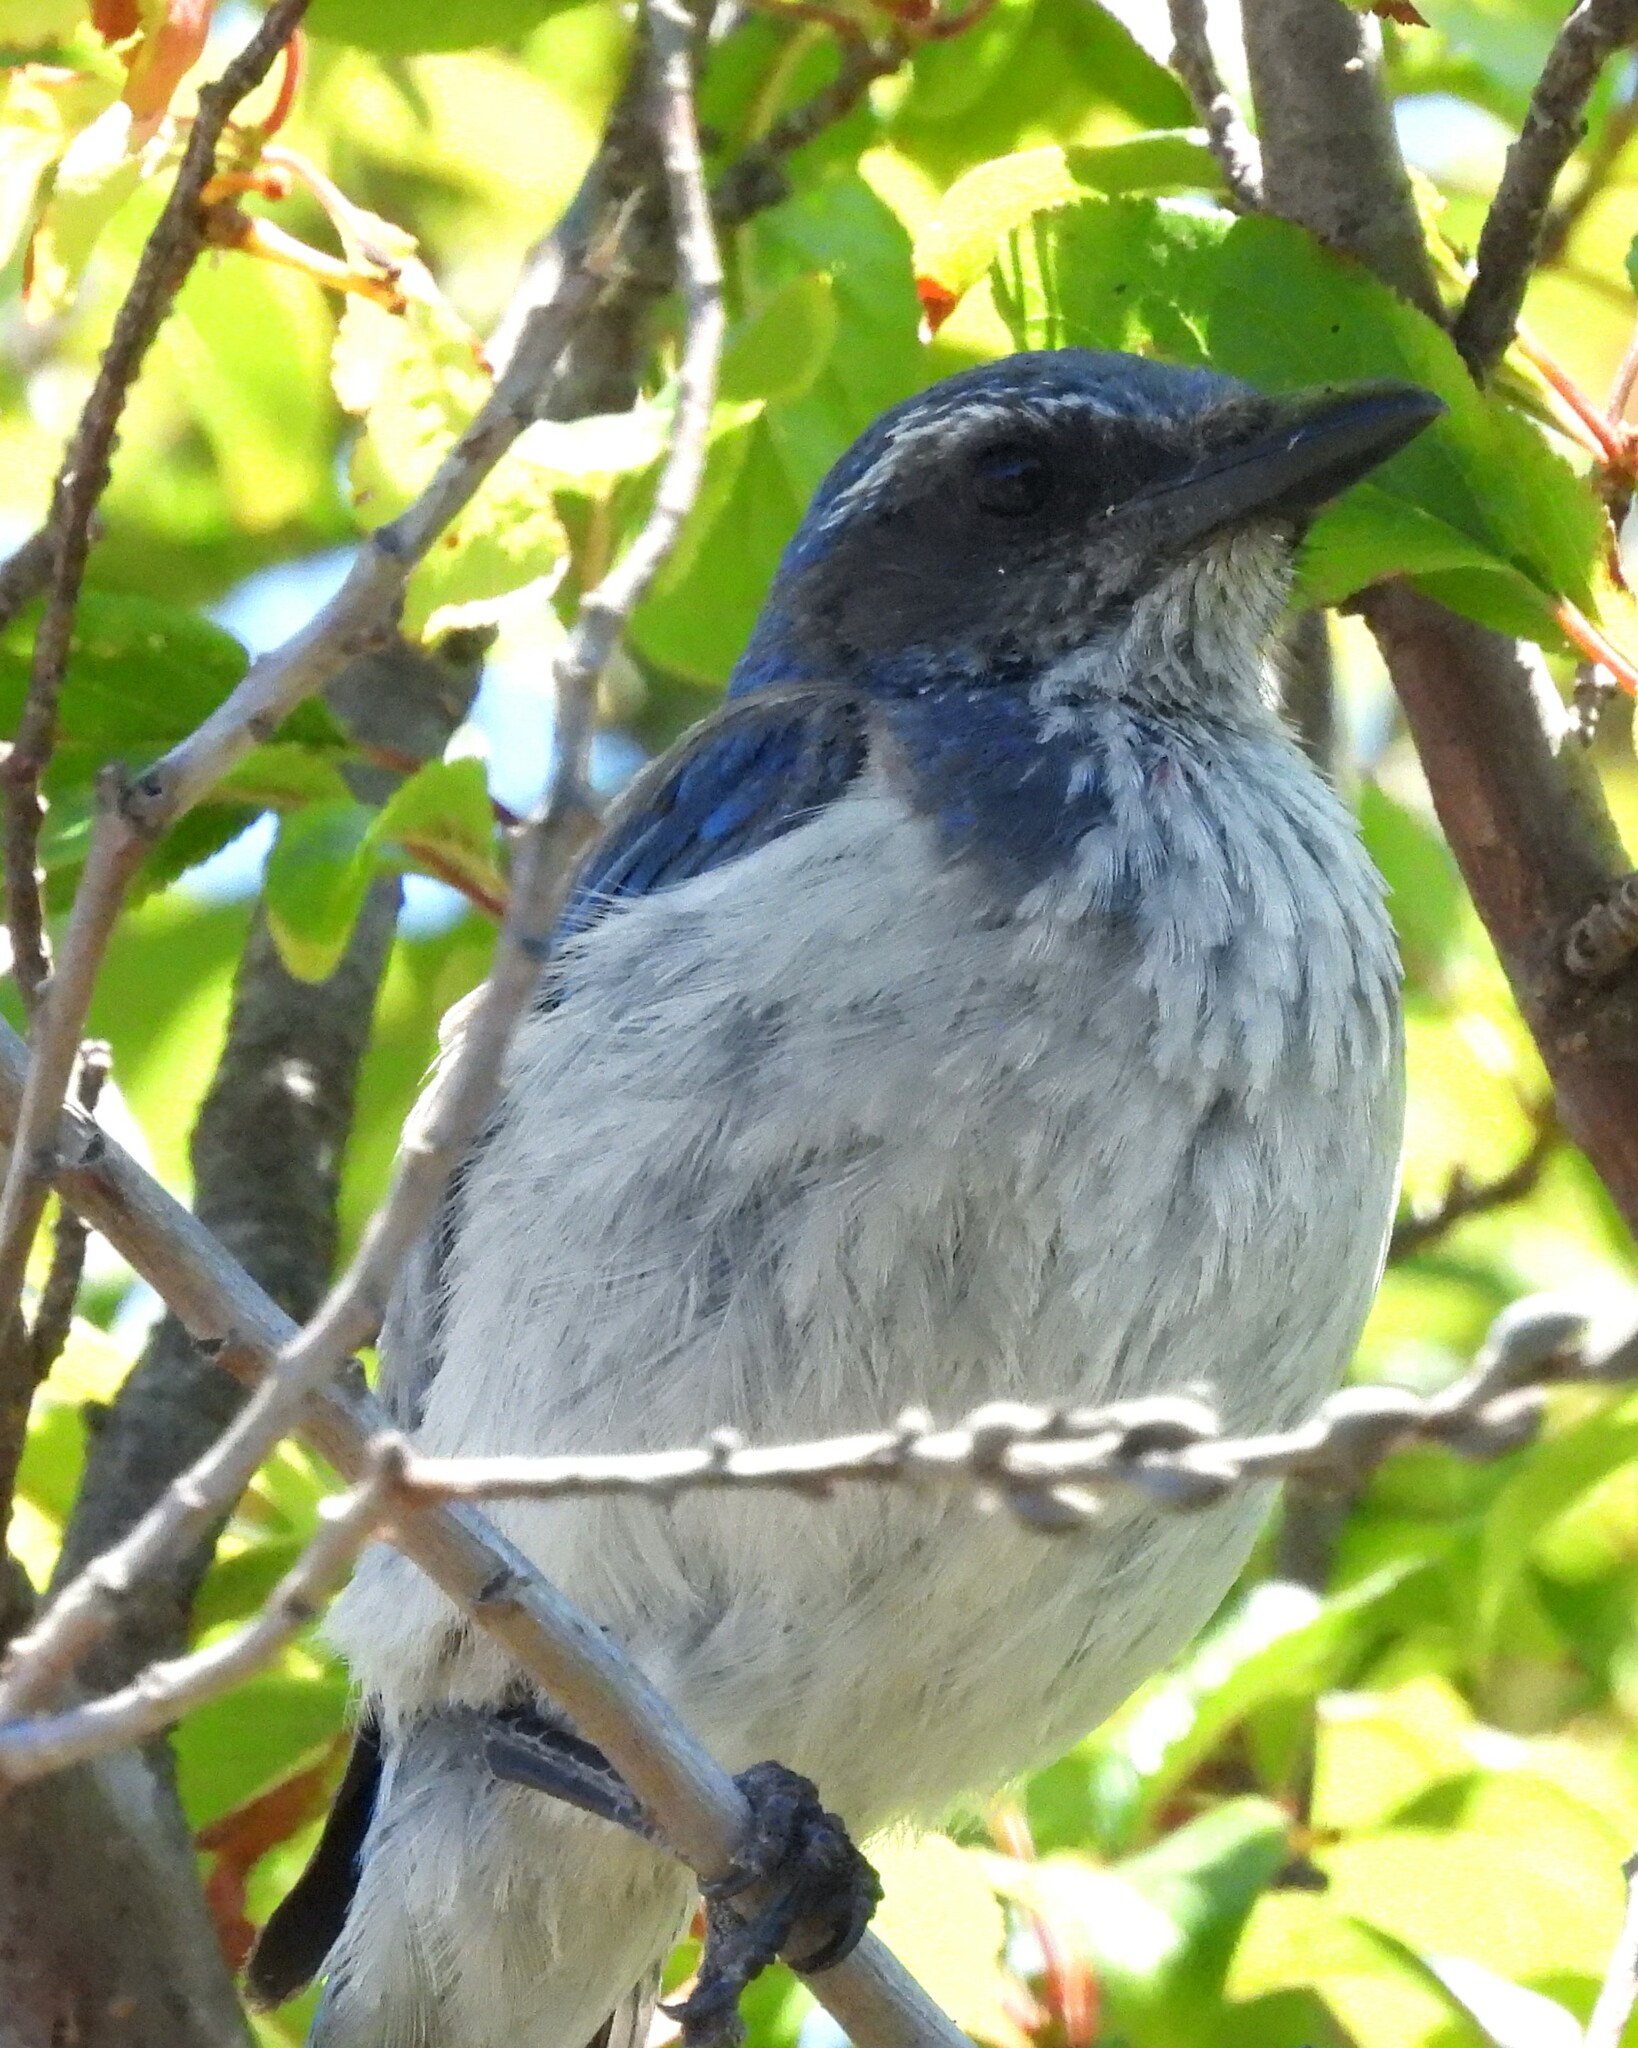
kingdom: Animalia
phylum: Chordata
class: Aves
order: Passeriformes
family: Corvidae
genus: Aphelocoma
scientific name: Aphelocoma californica
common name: California scrub-jay
